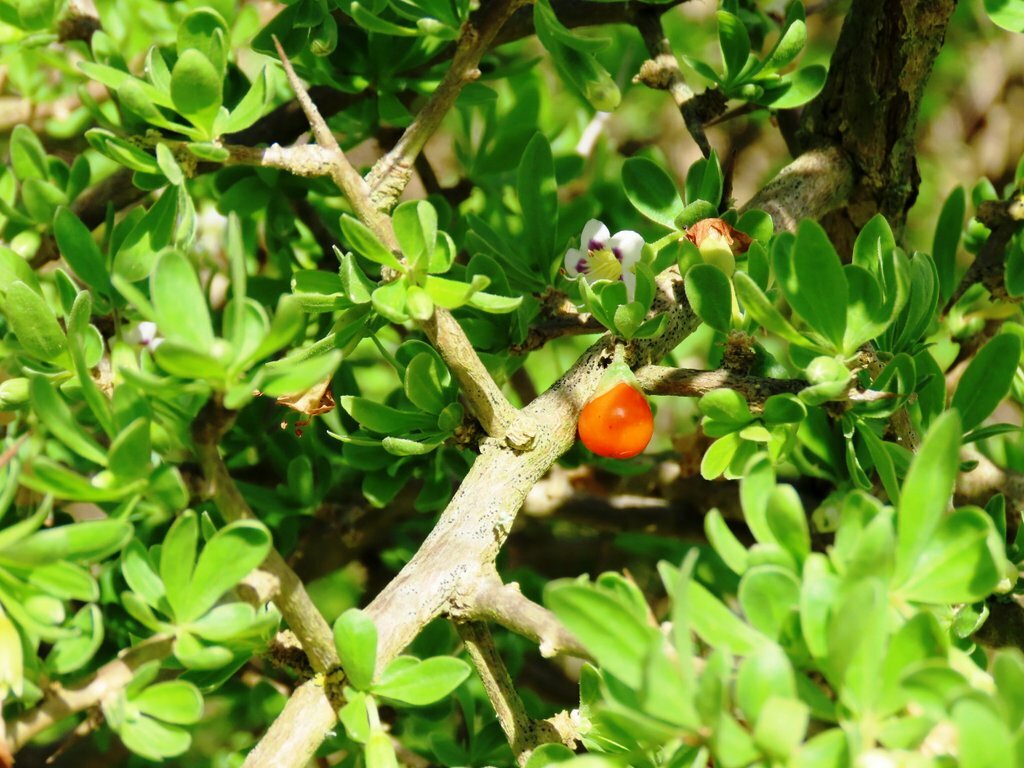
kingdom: Plantae
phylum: Tracheophyta
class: Magnoliopsida
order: Solanales
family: Solanaceae
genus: Lycium
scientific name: Lycium ferocissimum
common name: African boxthorn
